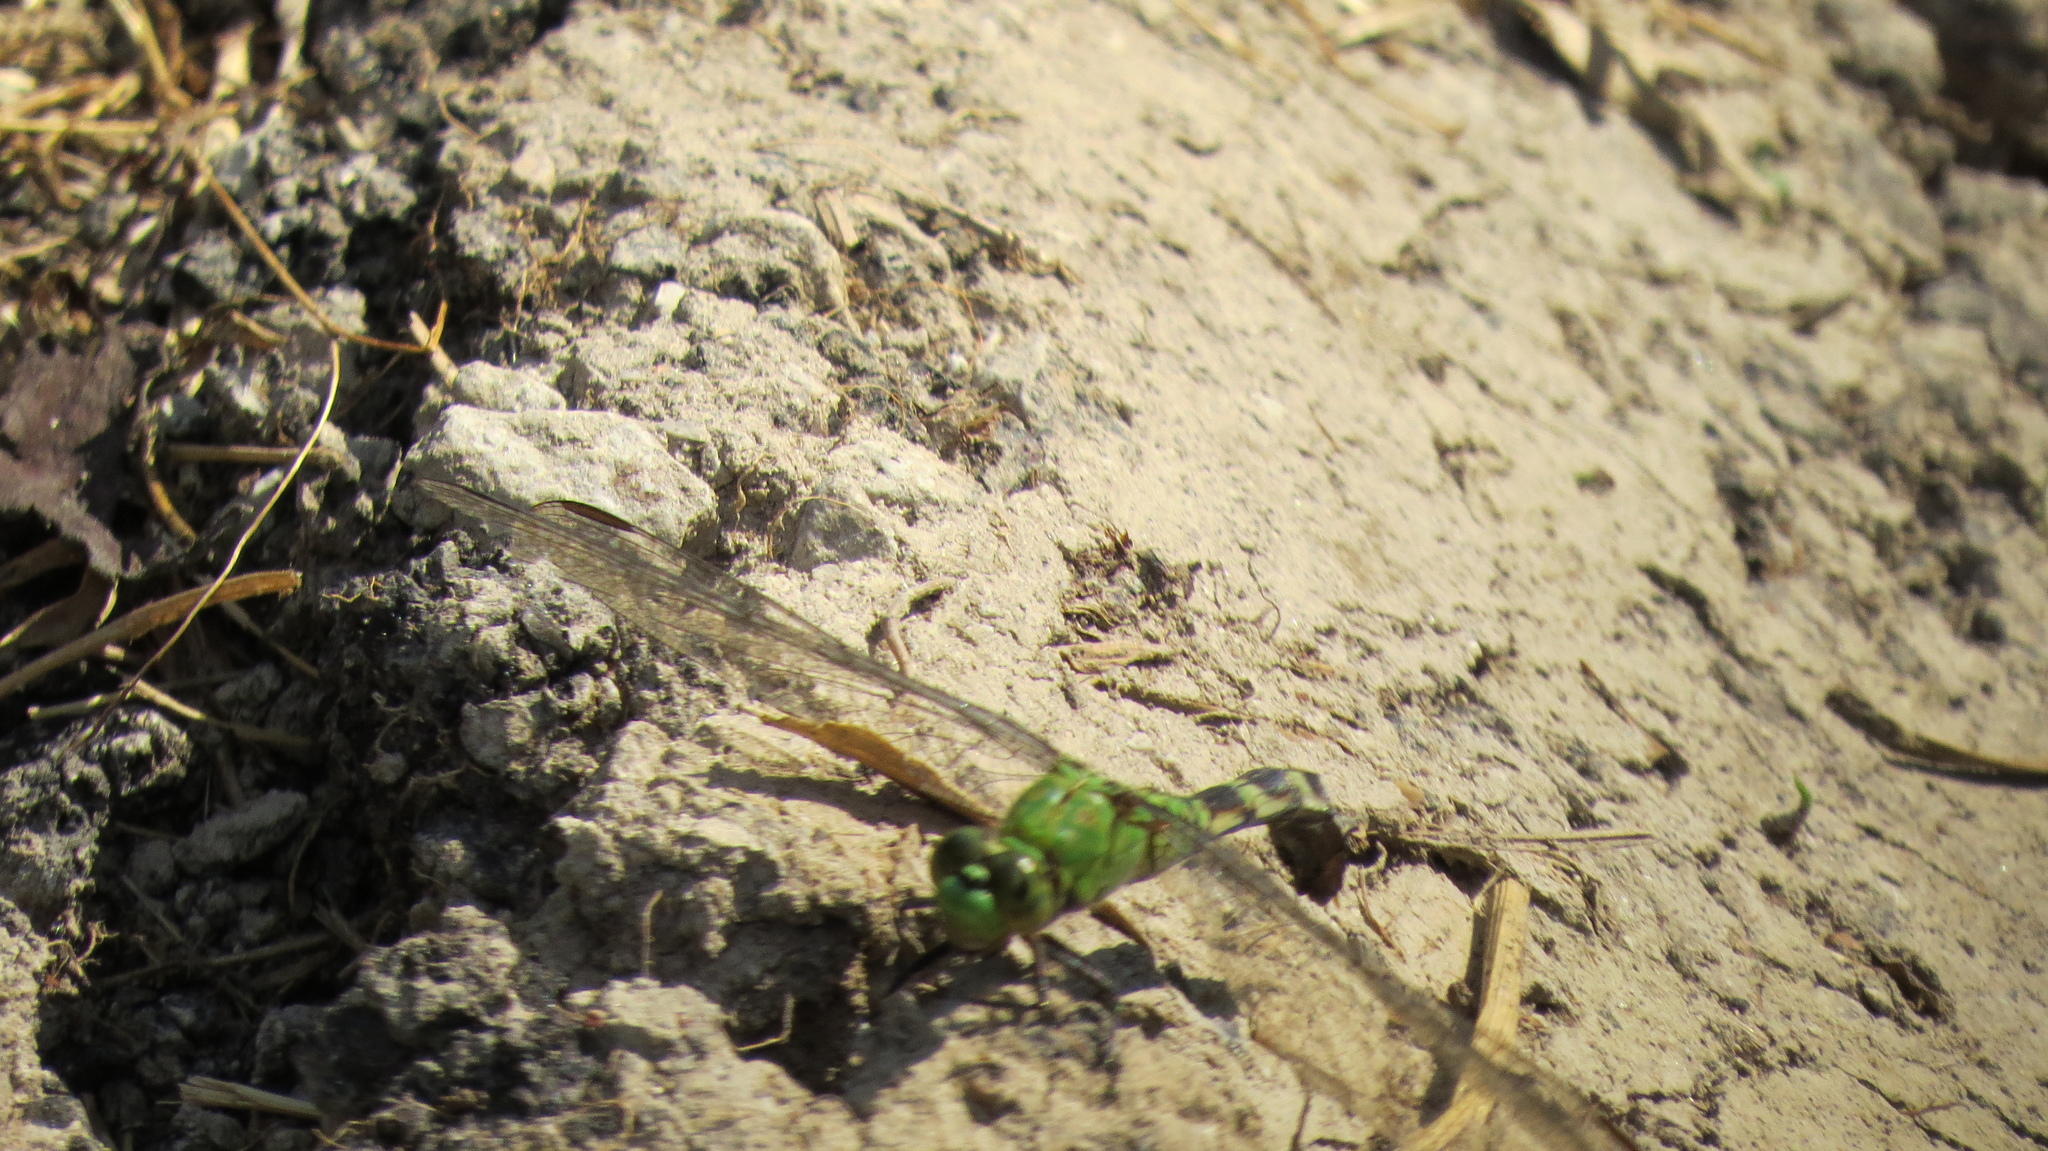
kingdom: Animalia
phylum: Arthropoda
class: Insecta
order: Odonata
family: Libellulidae
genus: Erythemis
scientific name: Erythemis simplicicollis
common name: Eastern pondhawk
